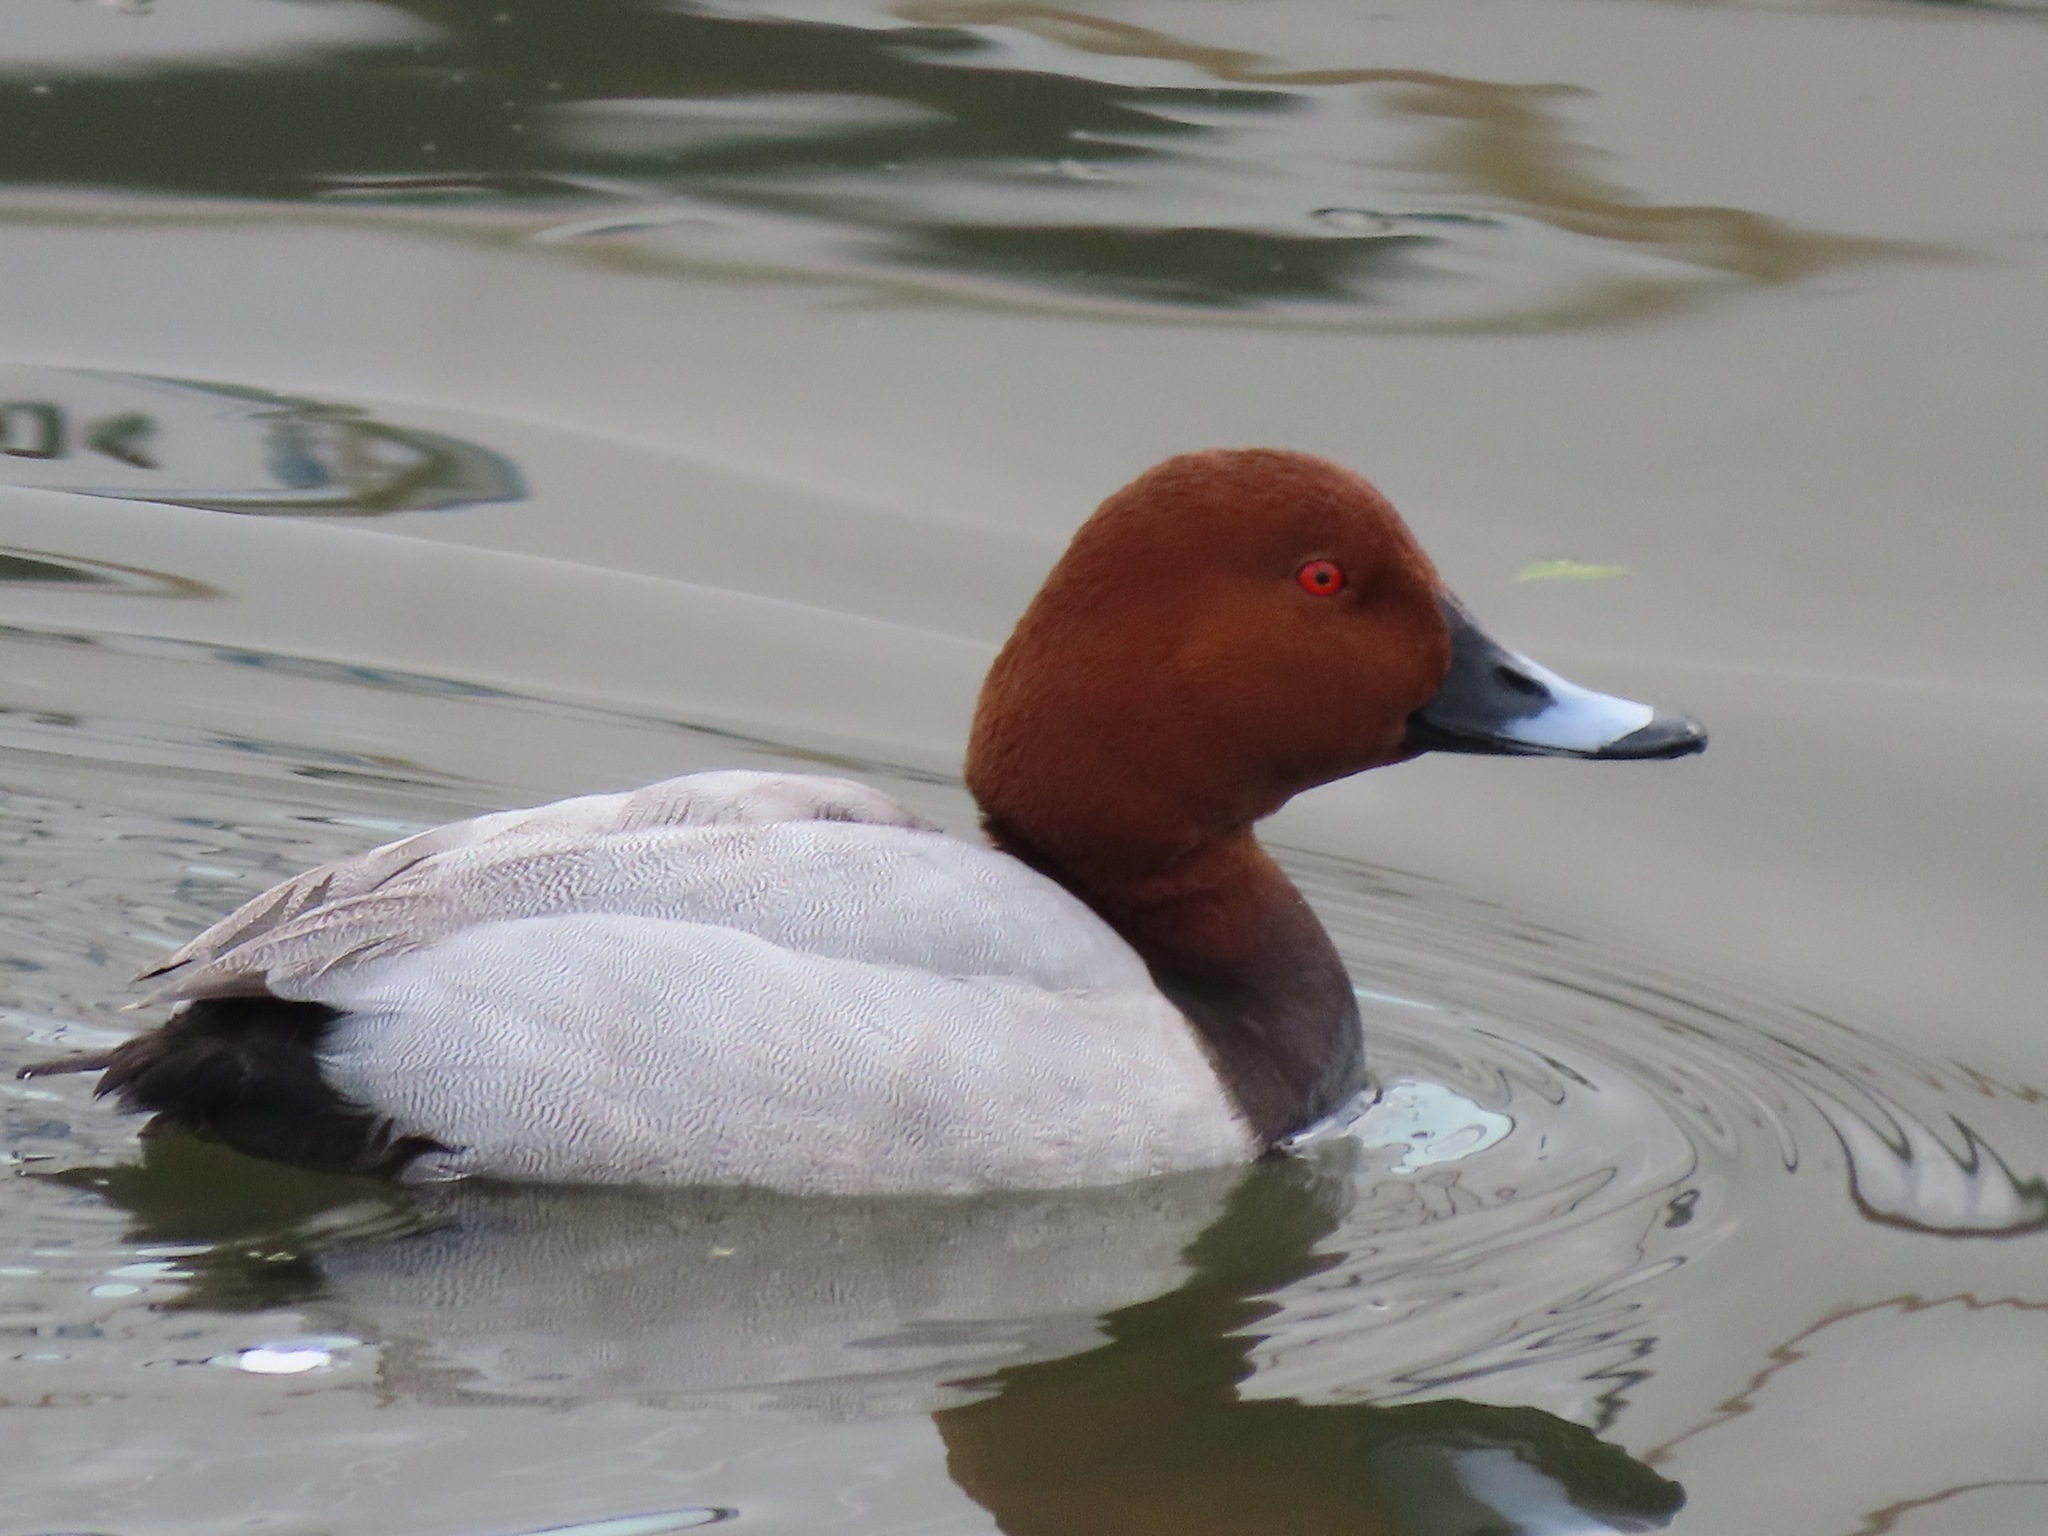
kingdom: Animalia
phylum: Chordata
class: Aves
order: Anseriformes
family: Anatidae
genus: Aythya
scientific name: Aythya ferina
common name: Common pochard
